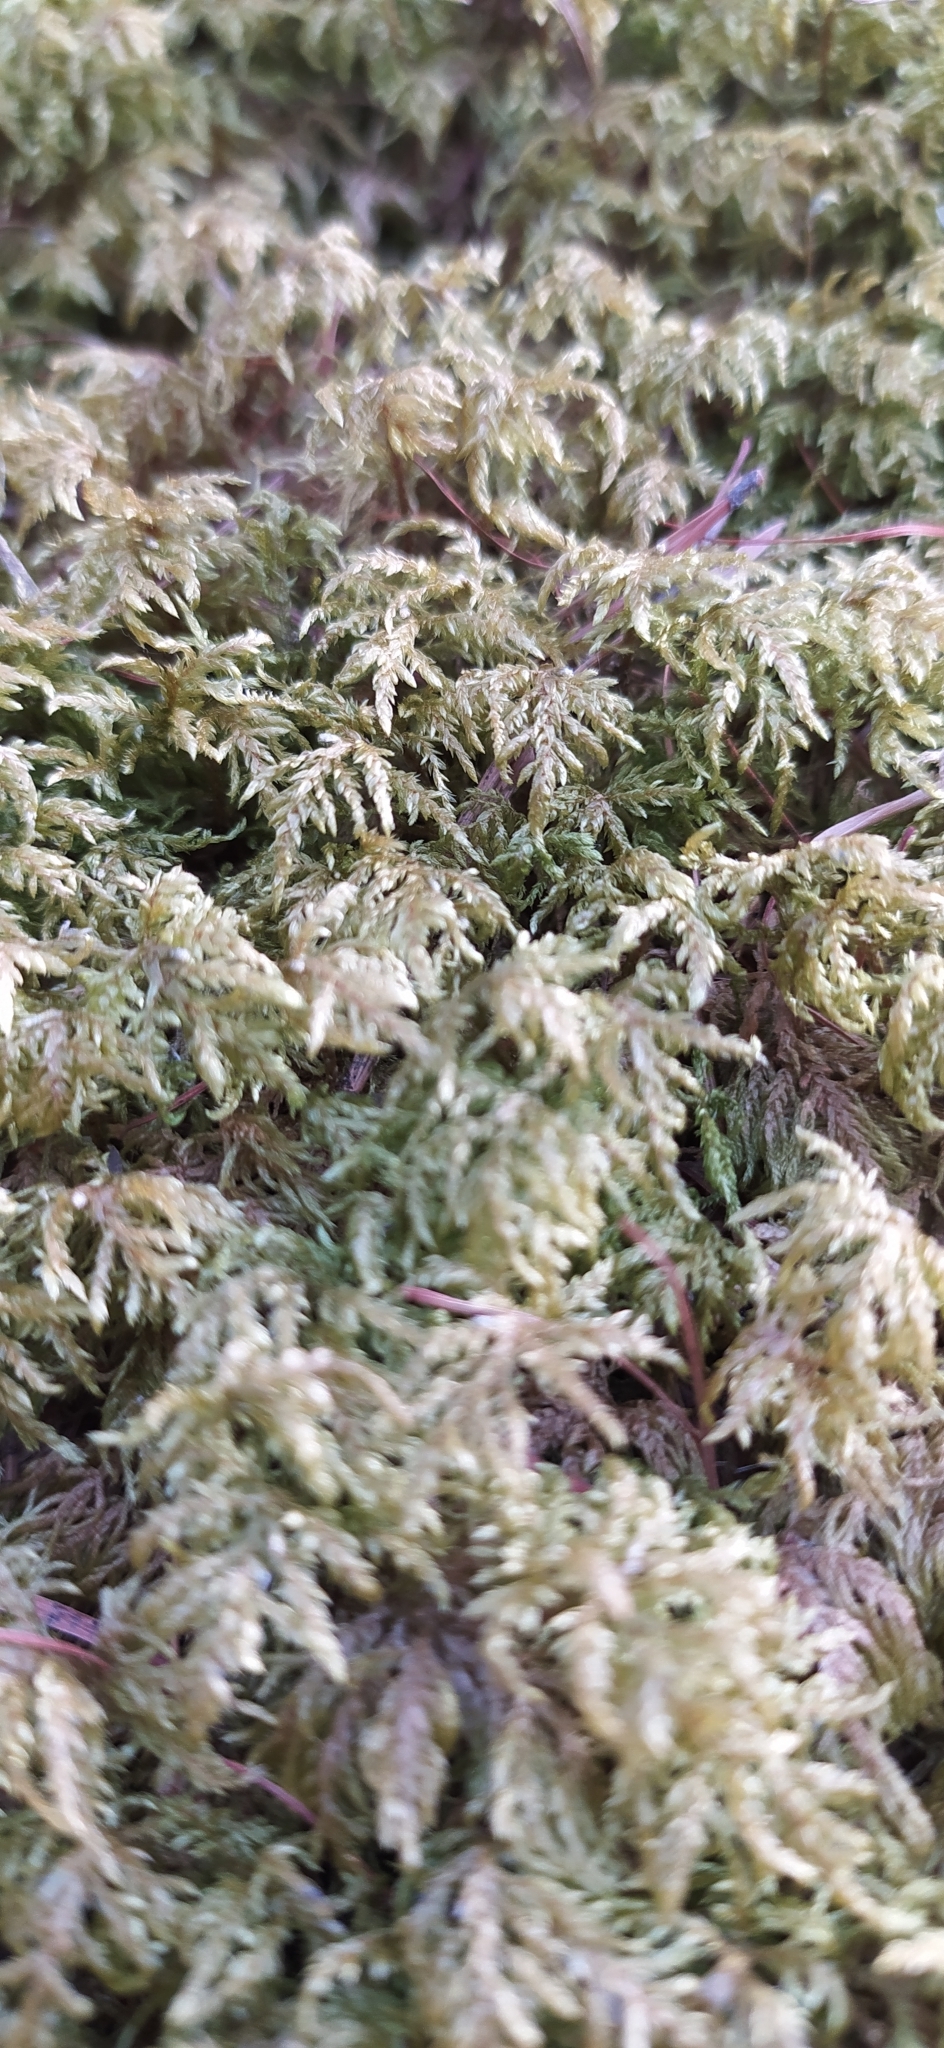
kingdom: Plantae
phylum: Bryophyta
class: Bryopsida
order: Hypnales
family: Hylocomiaceae
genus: Hylocomium
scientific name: Hylocomium splendens
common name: Stairstep moss
